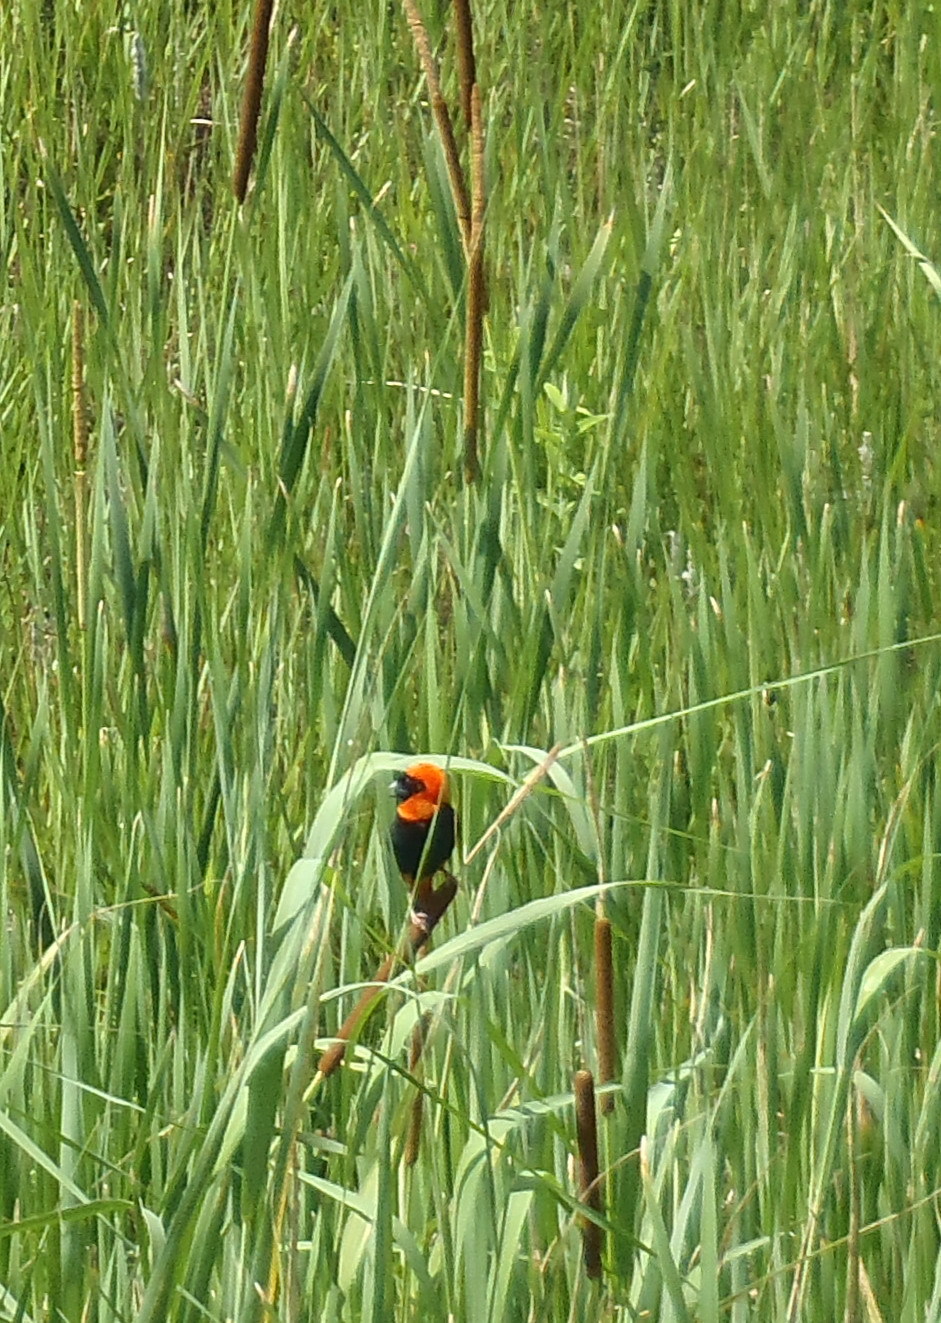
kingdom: Animalia
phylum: Chordata
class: Aves
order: Passeriformes
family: Ploceidae
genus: Euplectes
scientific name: Euplectes orix
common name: Southern red bishop
